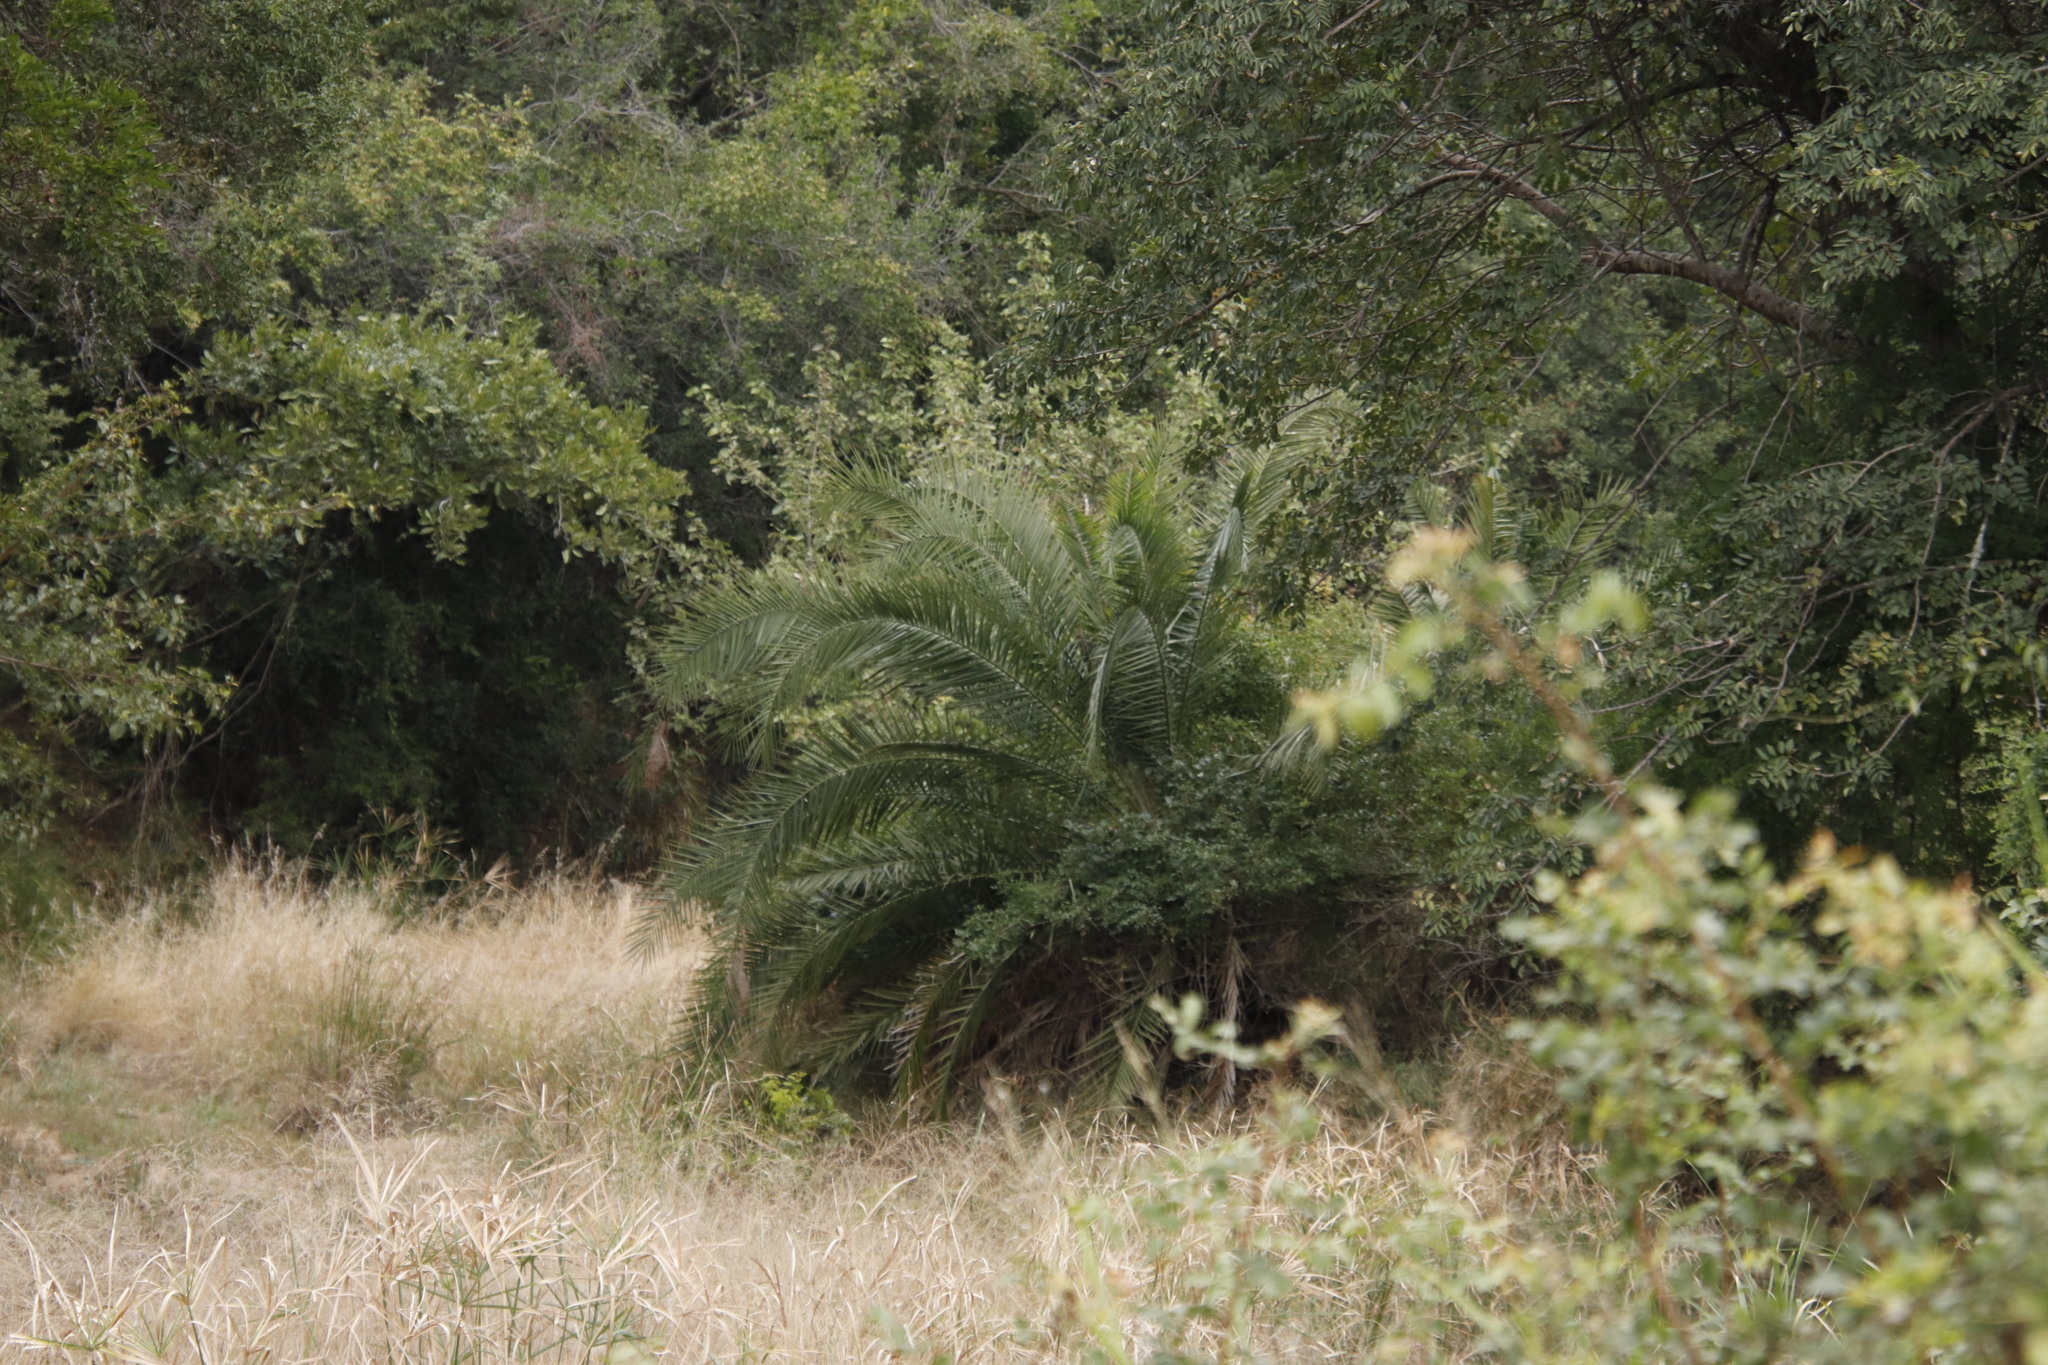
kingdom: Plantae
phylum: Tracheophyta
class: Liliopsida
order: Arecales
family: Arecaceae
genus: Phoenix
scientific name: Phoenix reclinata
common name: Senegal date palm
